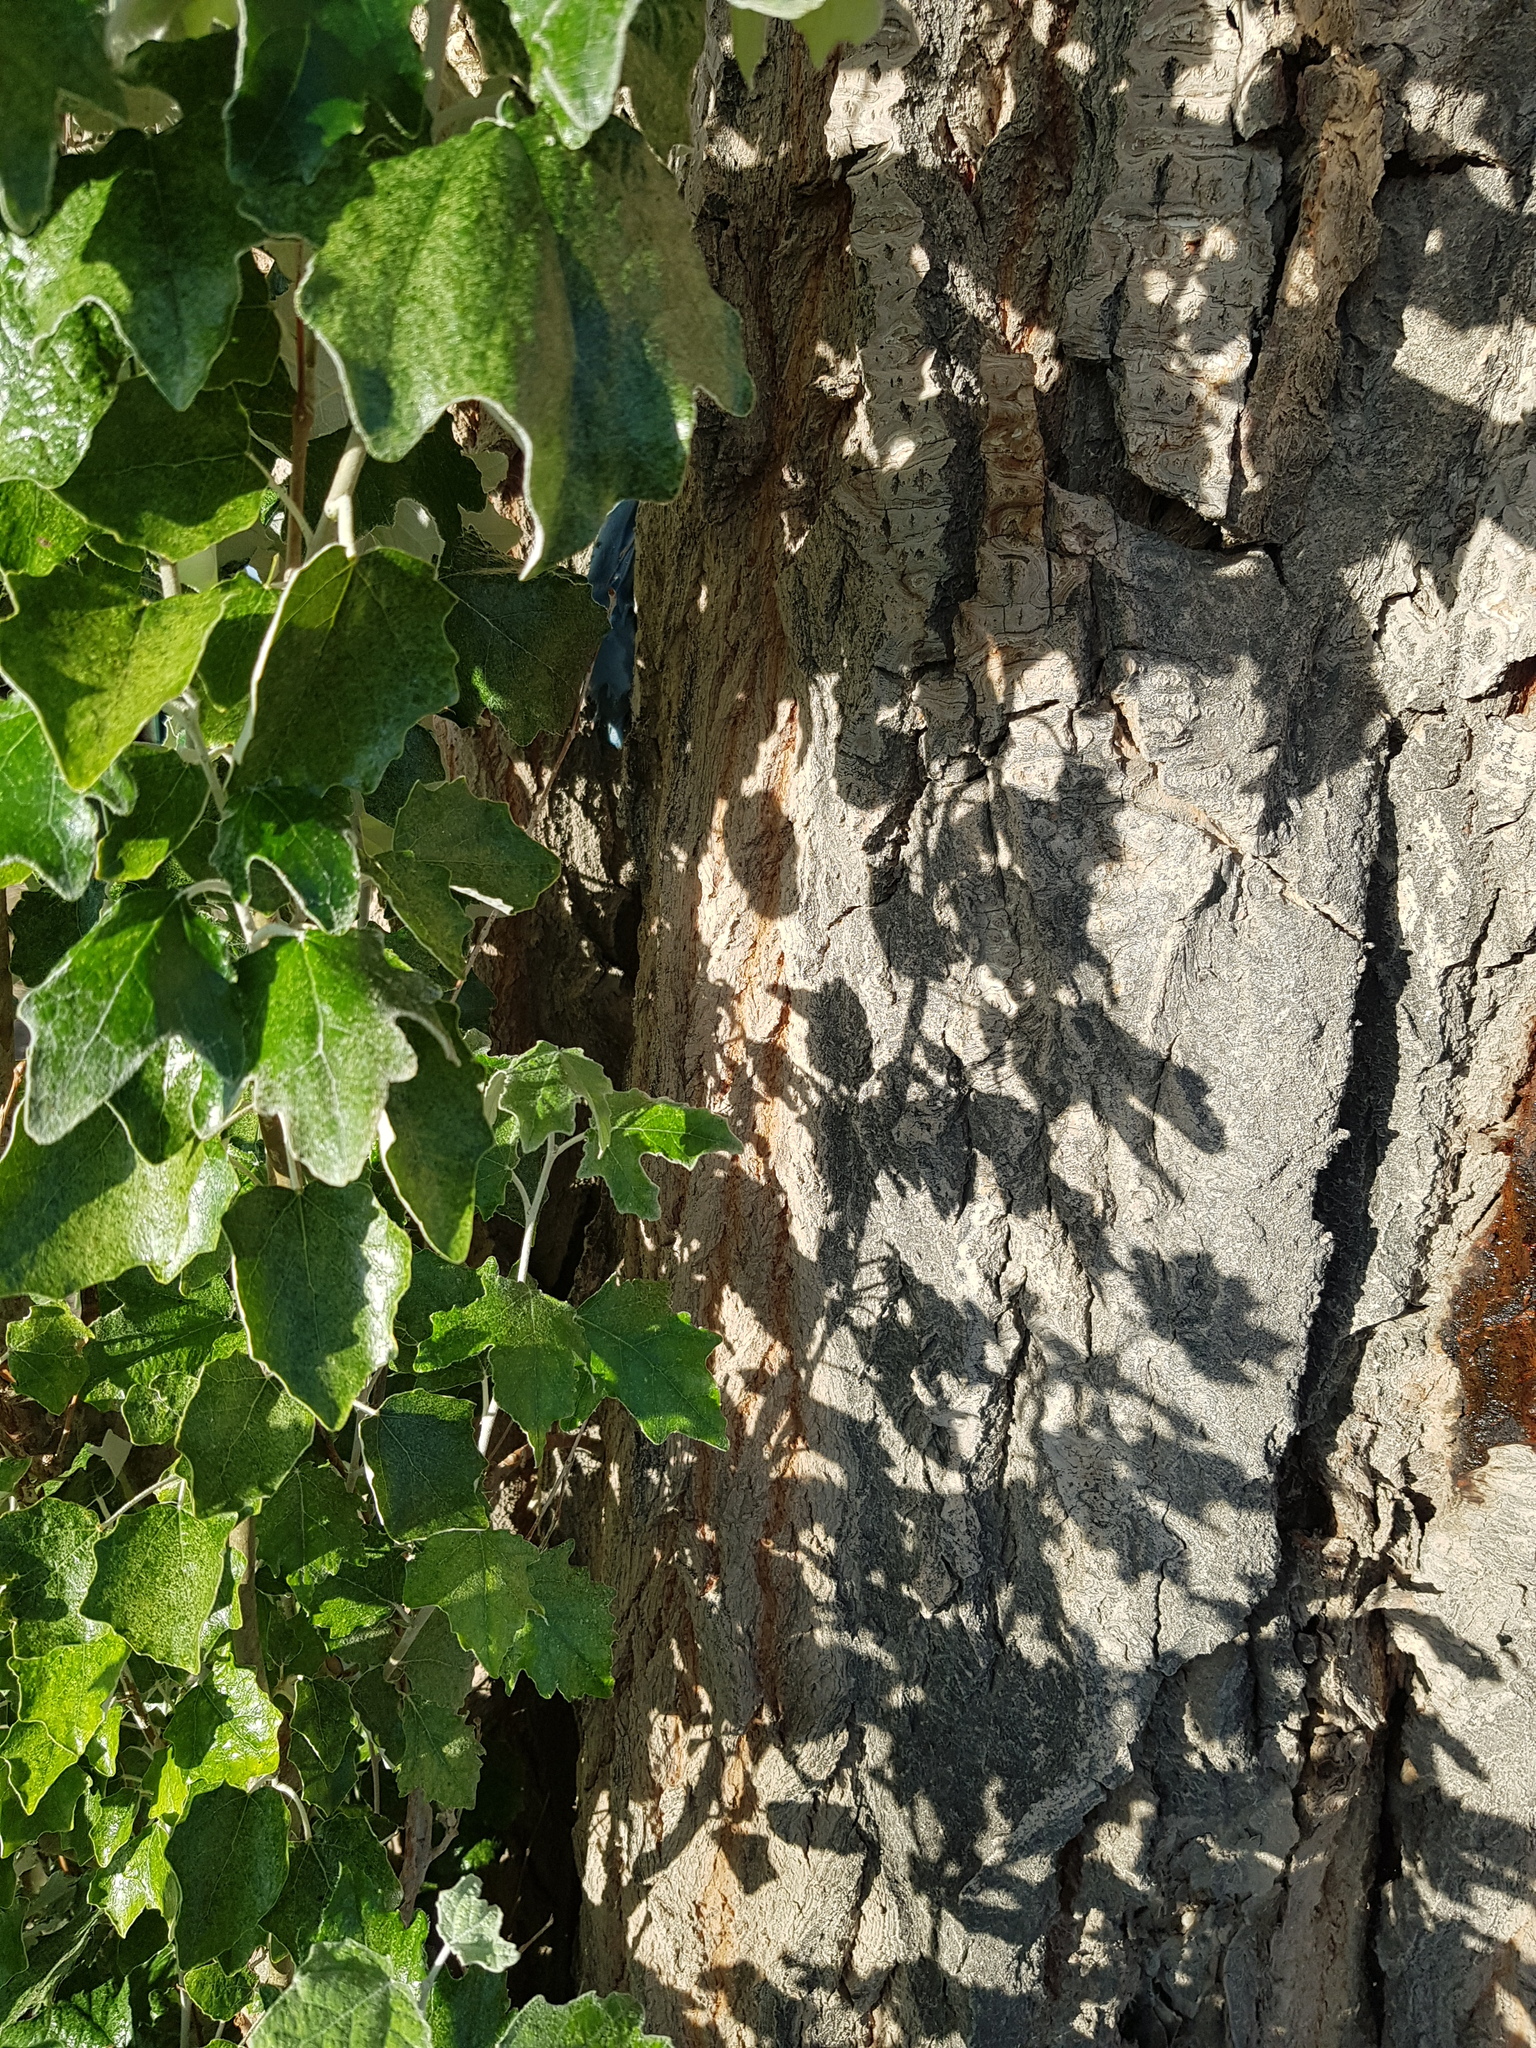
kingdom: Plantae
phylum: Tracheophyta
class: Magnoliopsida
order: Malpighiales
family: Salicaceae
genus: Populus
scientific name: Populus alba
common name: White poplar
